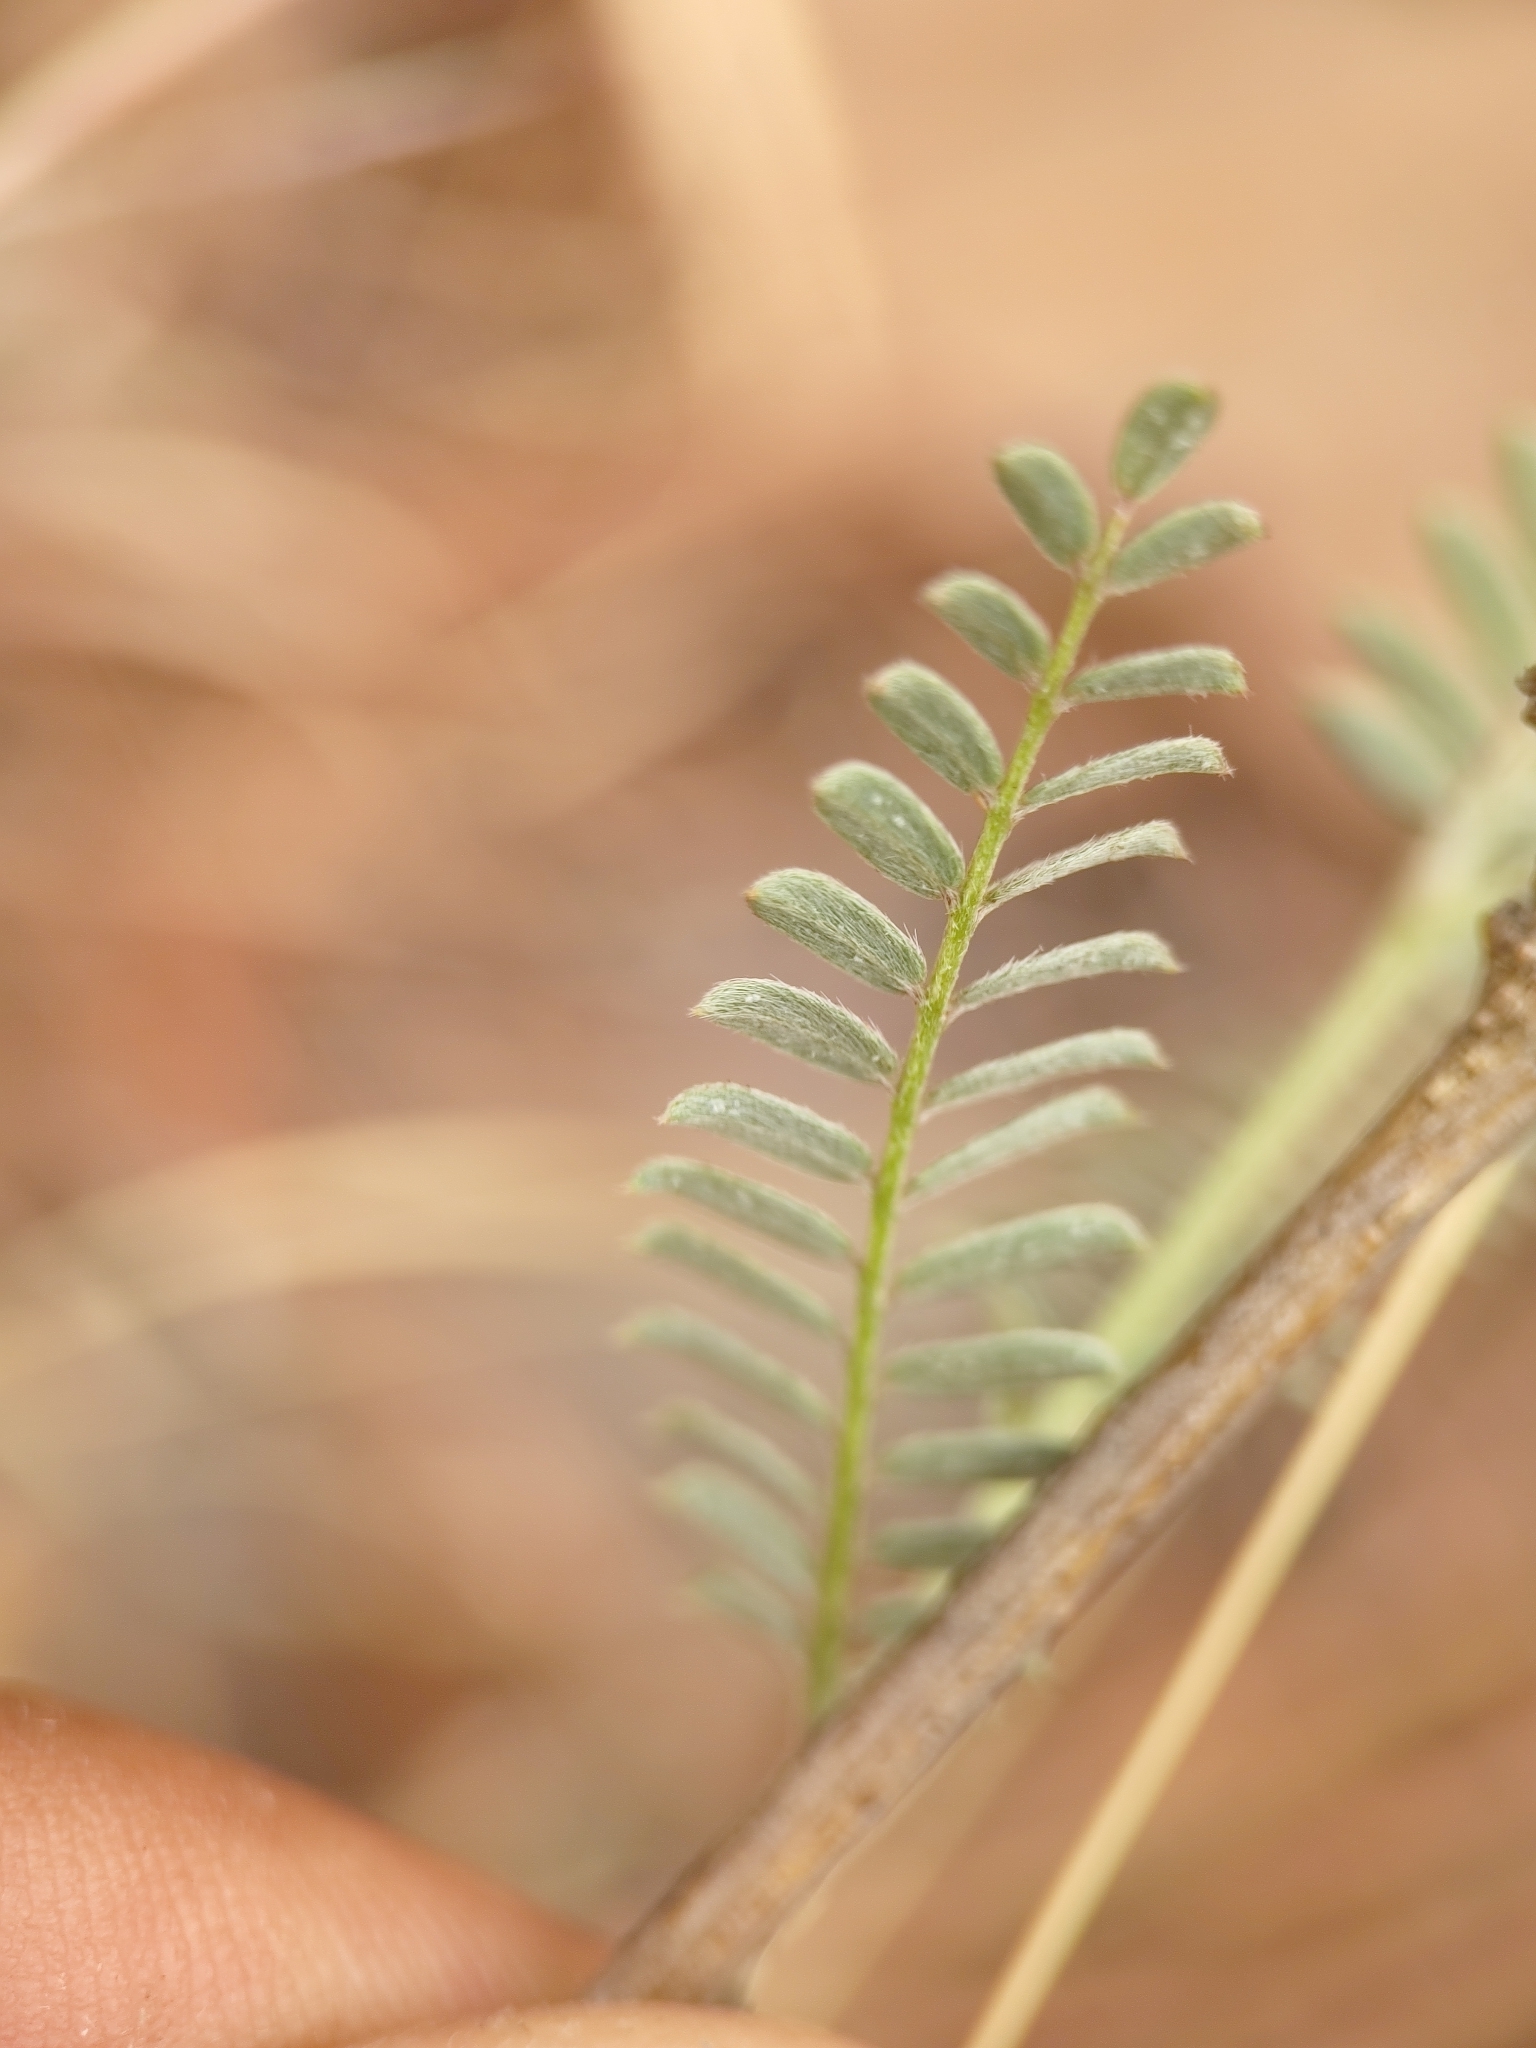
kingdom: Plantae
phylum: Tracheophyta
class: Magnoliopsida
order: Fabales
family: Fabaceae
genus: Ctenodon
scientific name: Ctenodon petraeus
